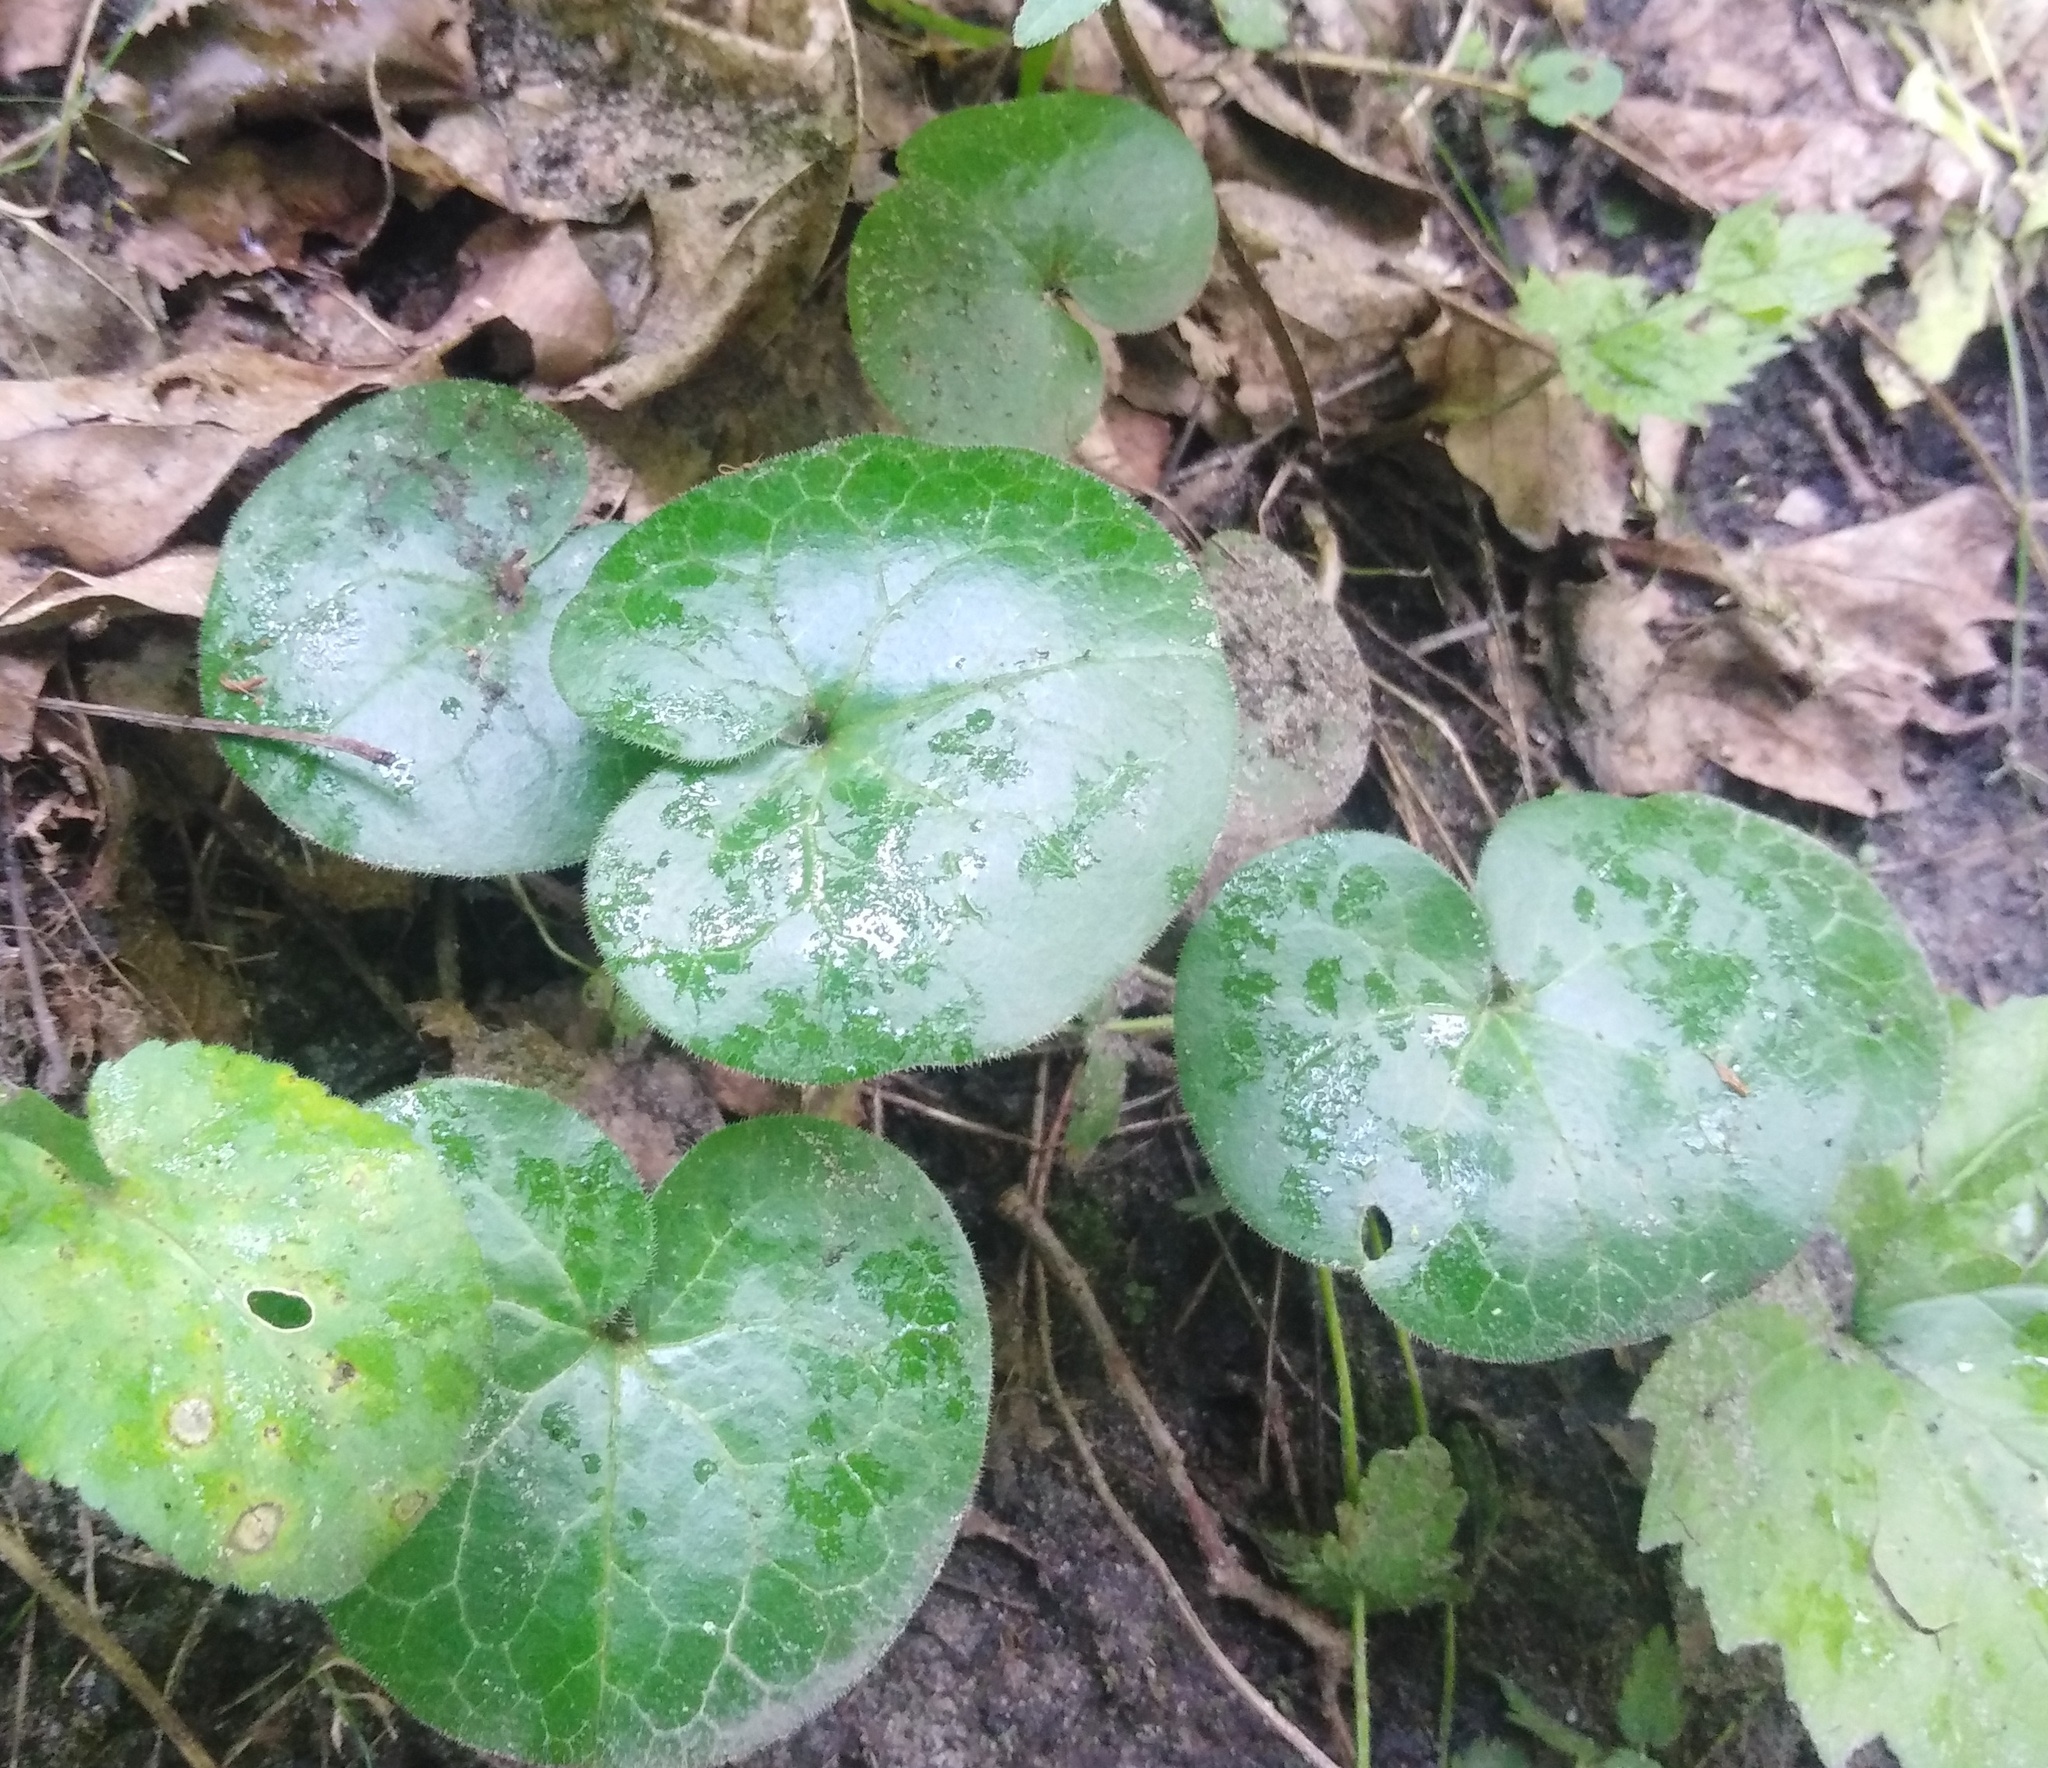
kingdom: Plantae
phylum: Tracheophyta
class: Magnoliopsida
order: Piperales
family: Aristolochiaceae
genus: Asarum
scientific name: Asarum europaeum
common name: Asarabacca
